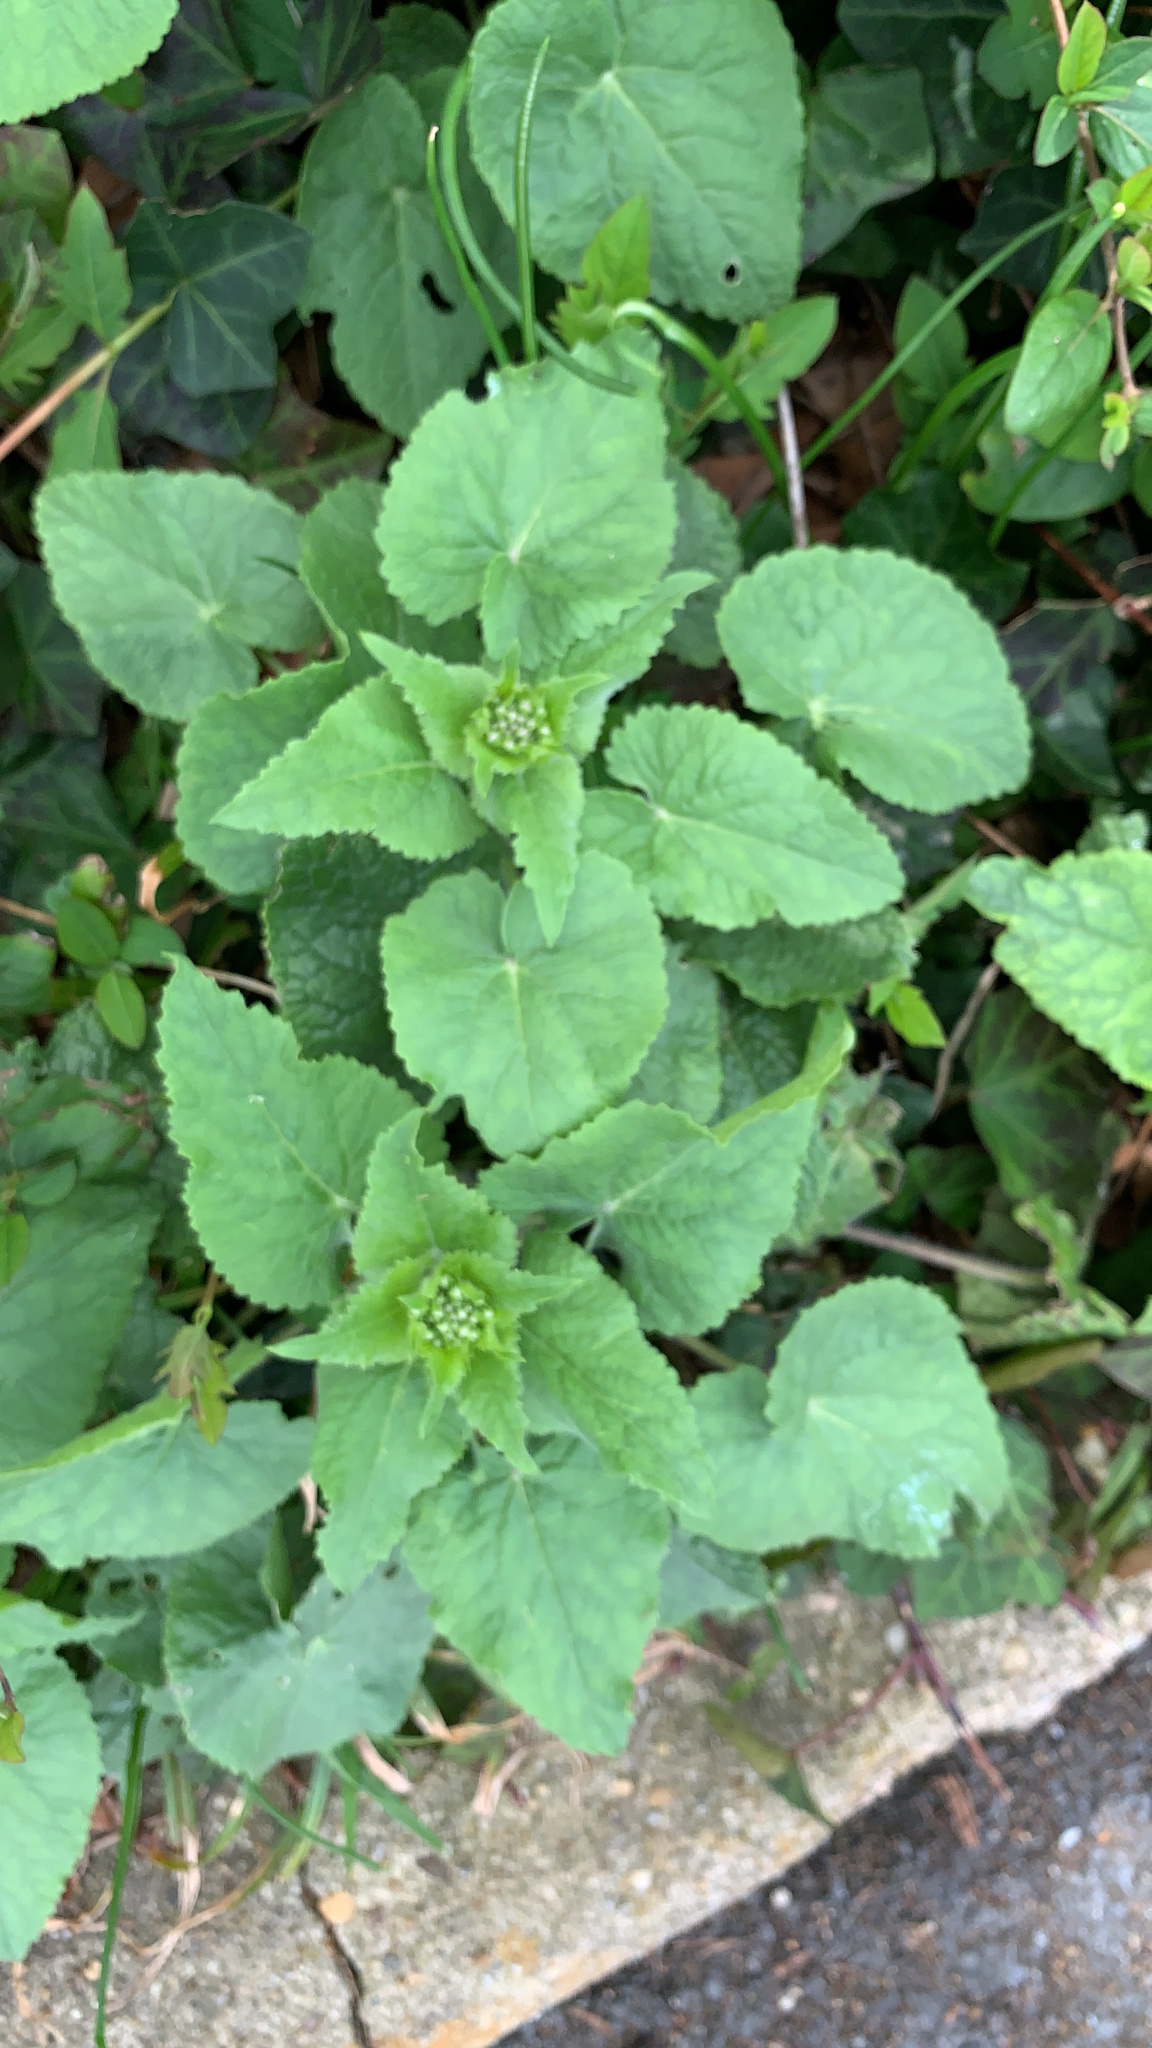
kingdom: Plantae
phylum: Tracheophyta
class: Magnoliopsida
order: Brassicales
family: Brassicaceae
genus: Lunaria
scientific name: Lunaria annua
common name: Honesty
